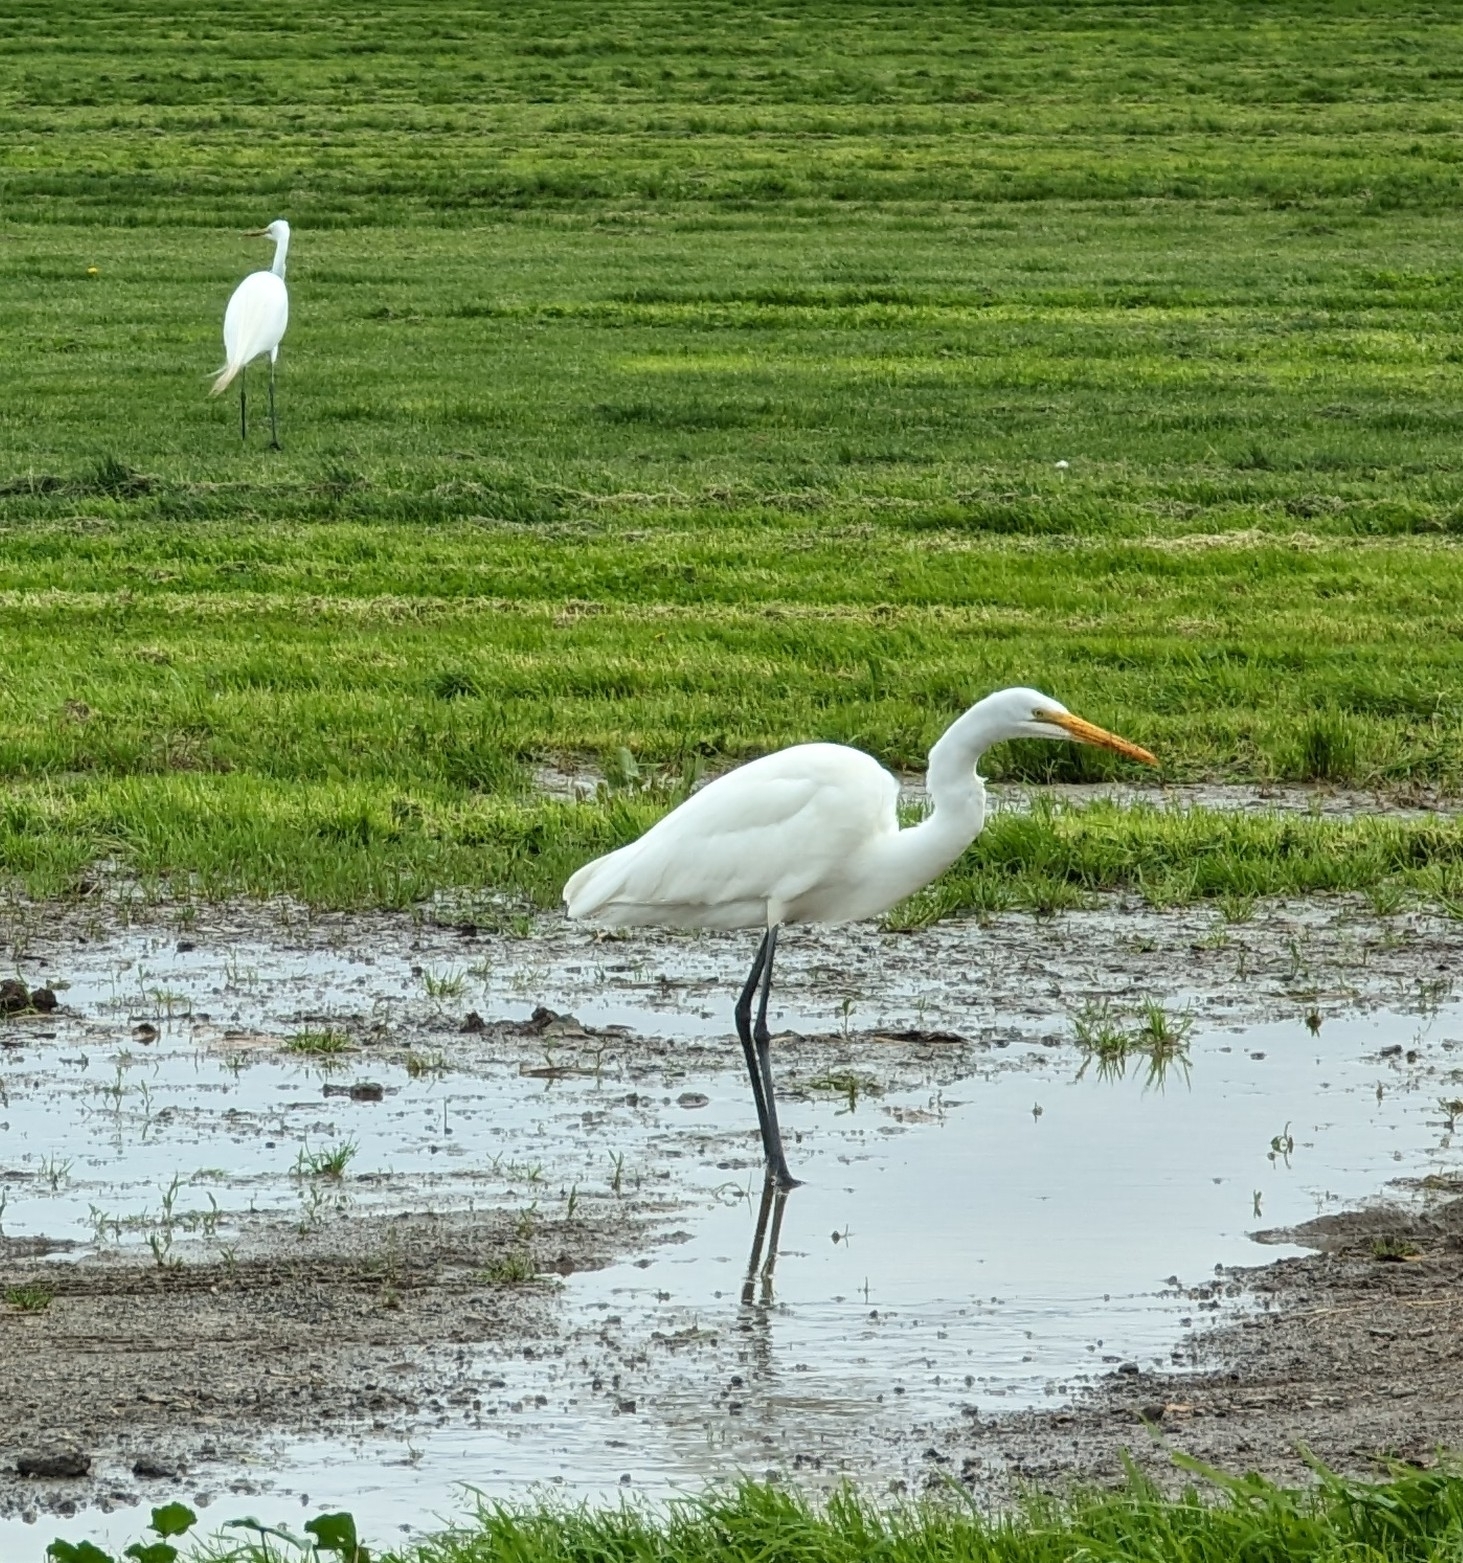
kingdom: Animalia
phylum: Chordata
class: Aves
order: Pelecaniformes
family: Ardeidae
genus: Ardea
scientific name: Ardea alba
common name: Great egret
